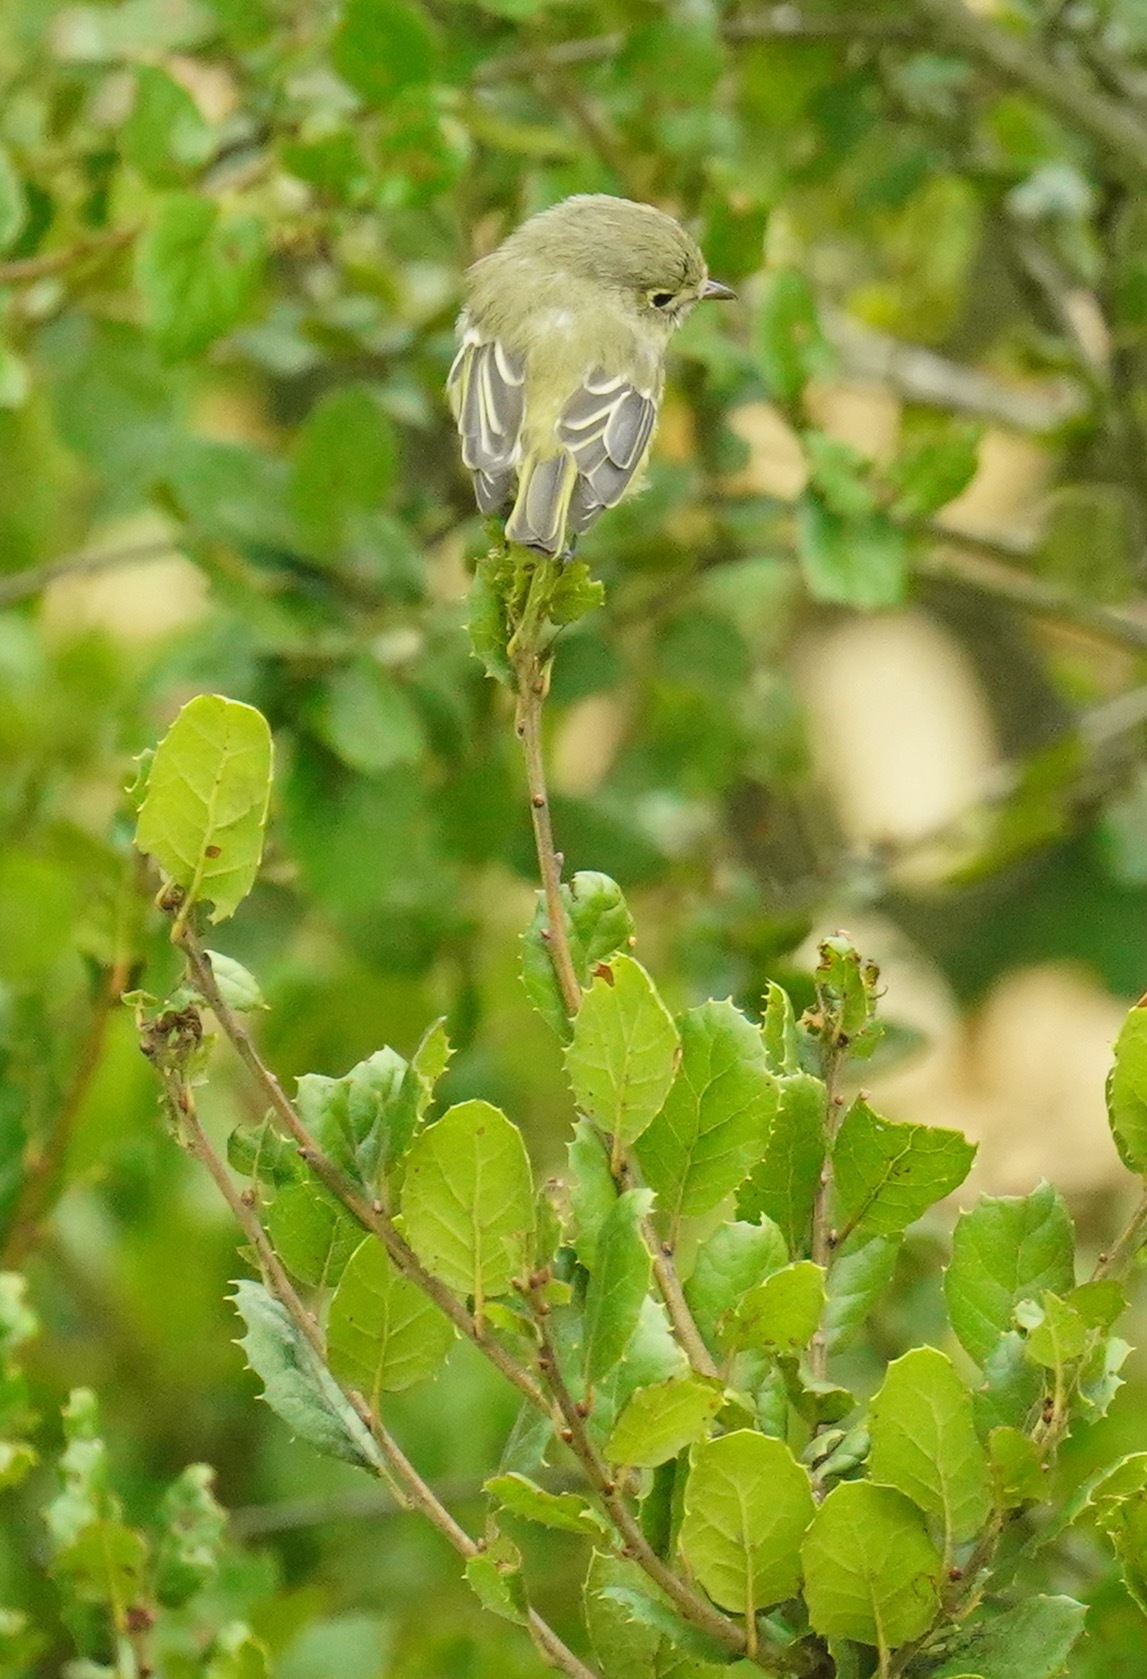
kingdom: Animalia
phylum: Chordata
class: Aves
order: Passeriformes
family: Vireonidae
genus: Vireo
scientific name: Vireo huttoni
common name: Hutton's vireo
